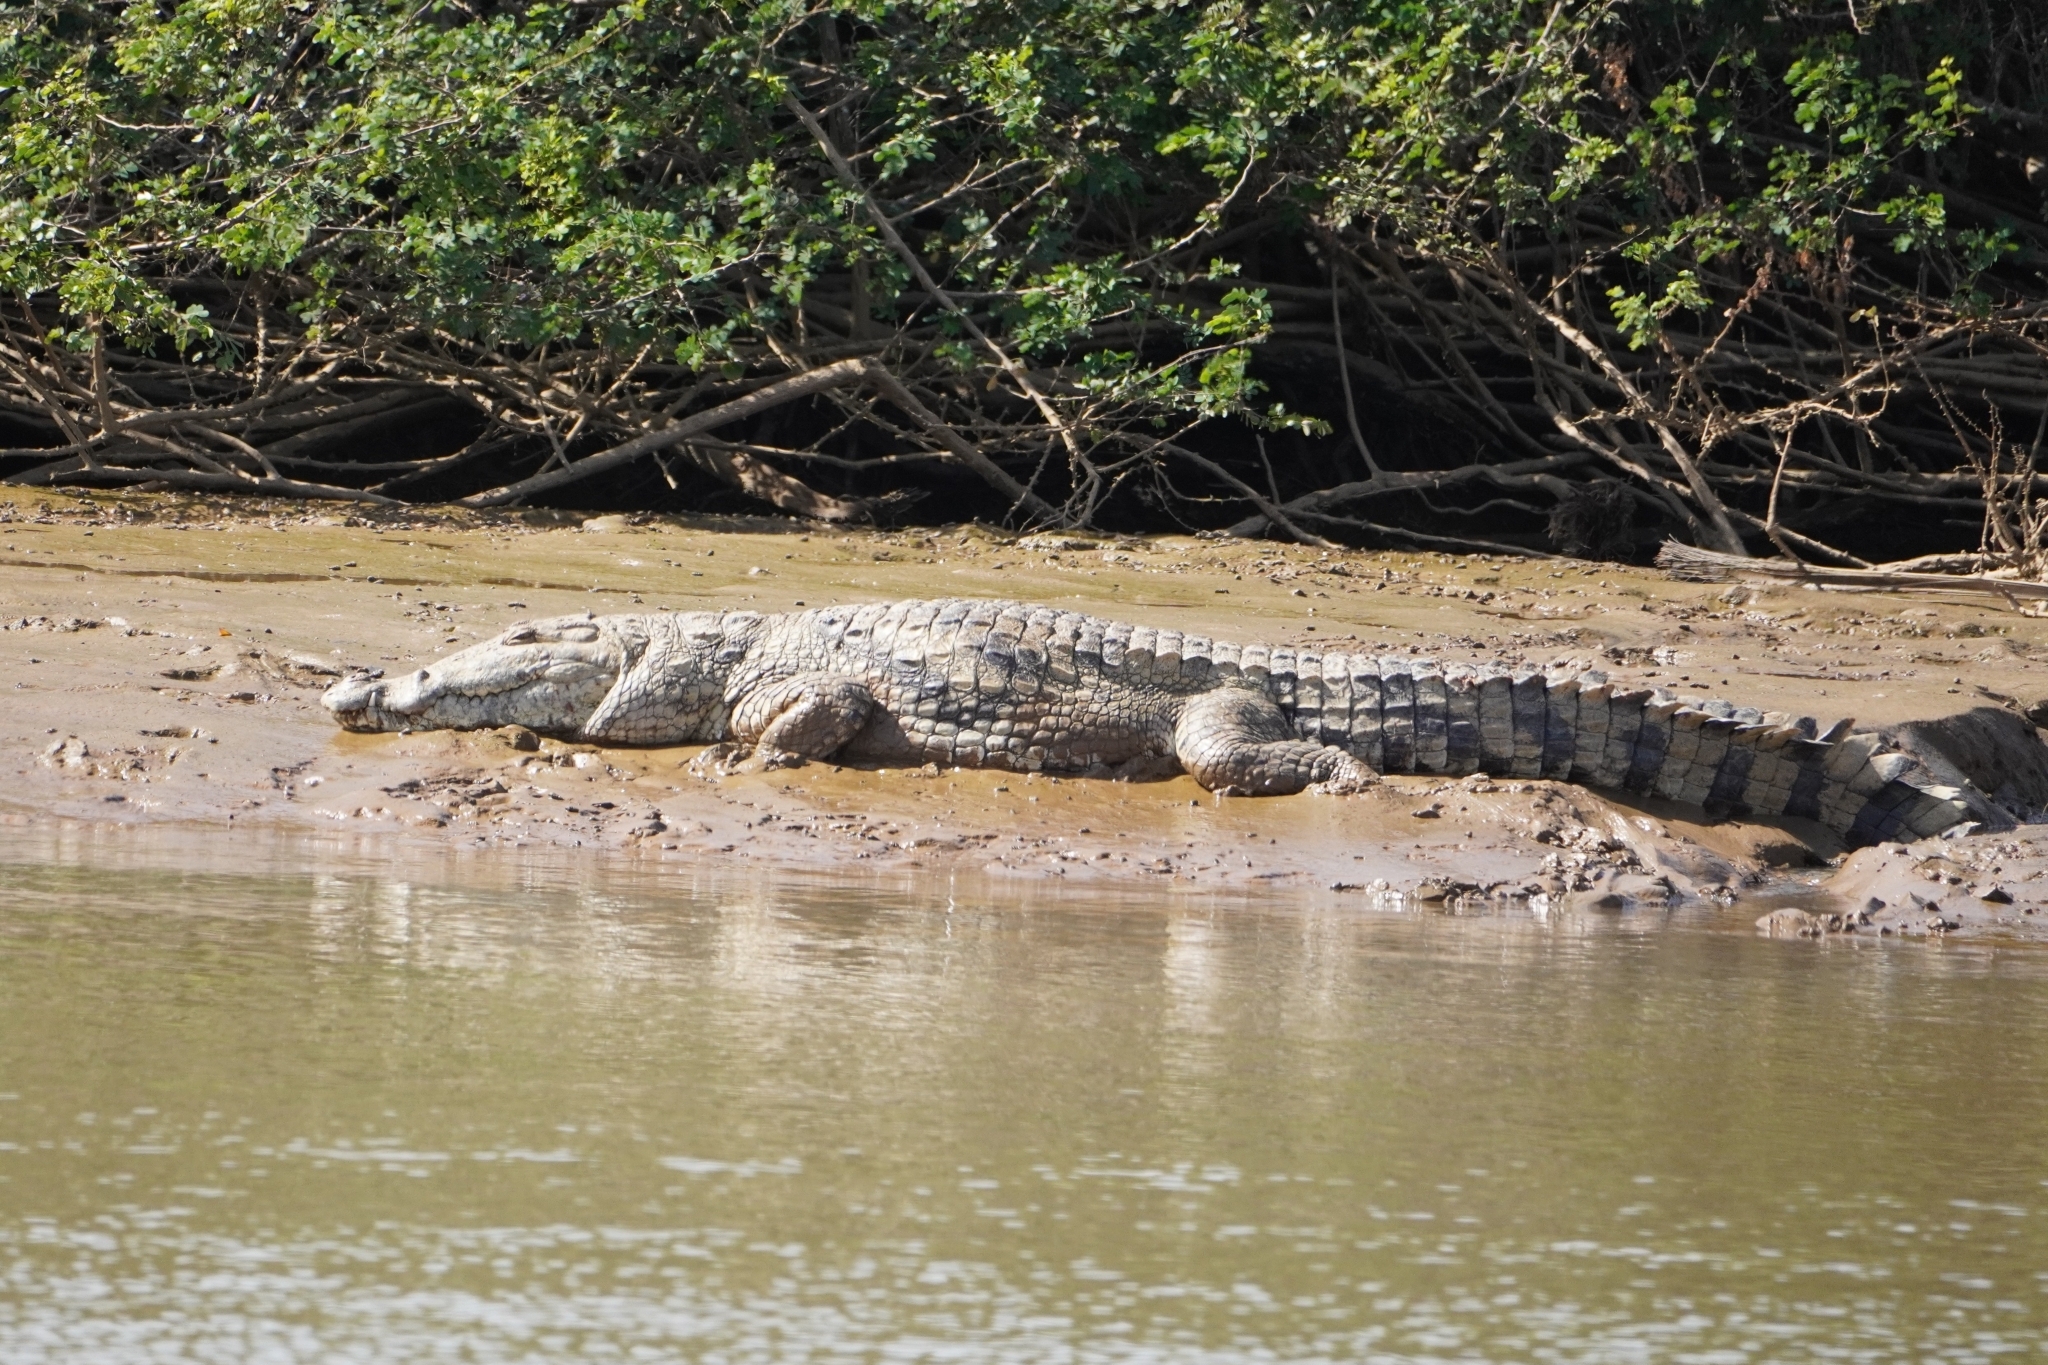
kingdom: Animalia
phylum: Chordata
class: Crocodylia
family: Crocodylidae
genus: Crocodylus
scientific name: Crocodylus suchus
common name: West african crocodile
